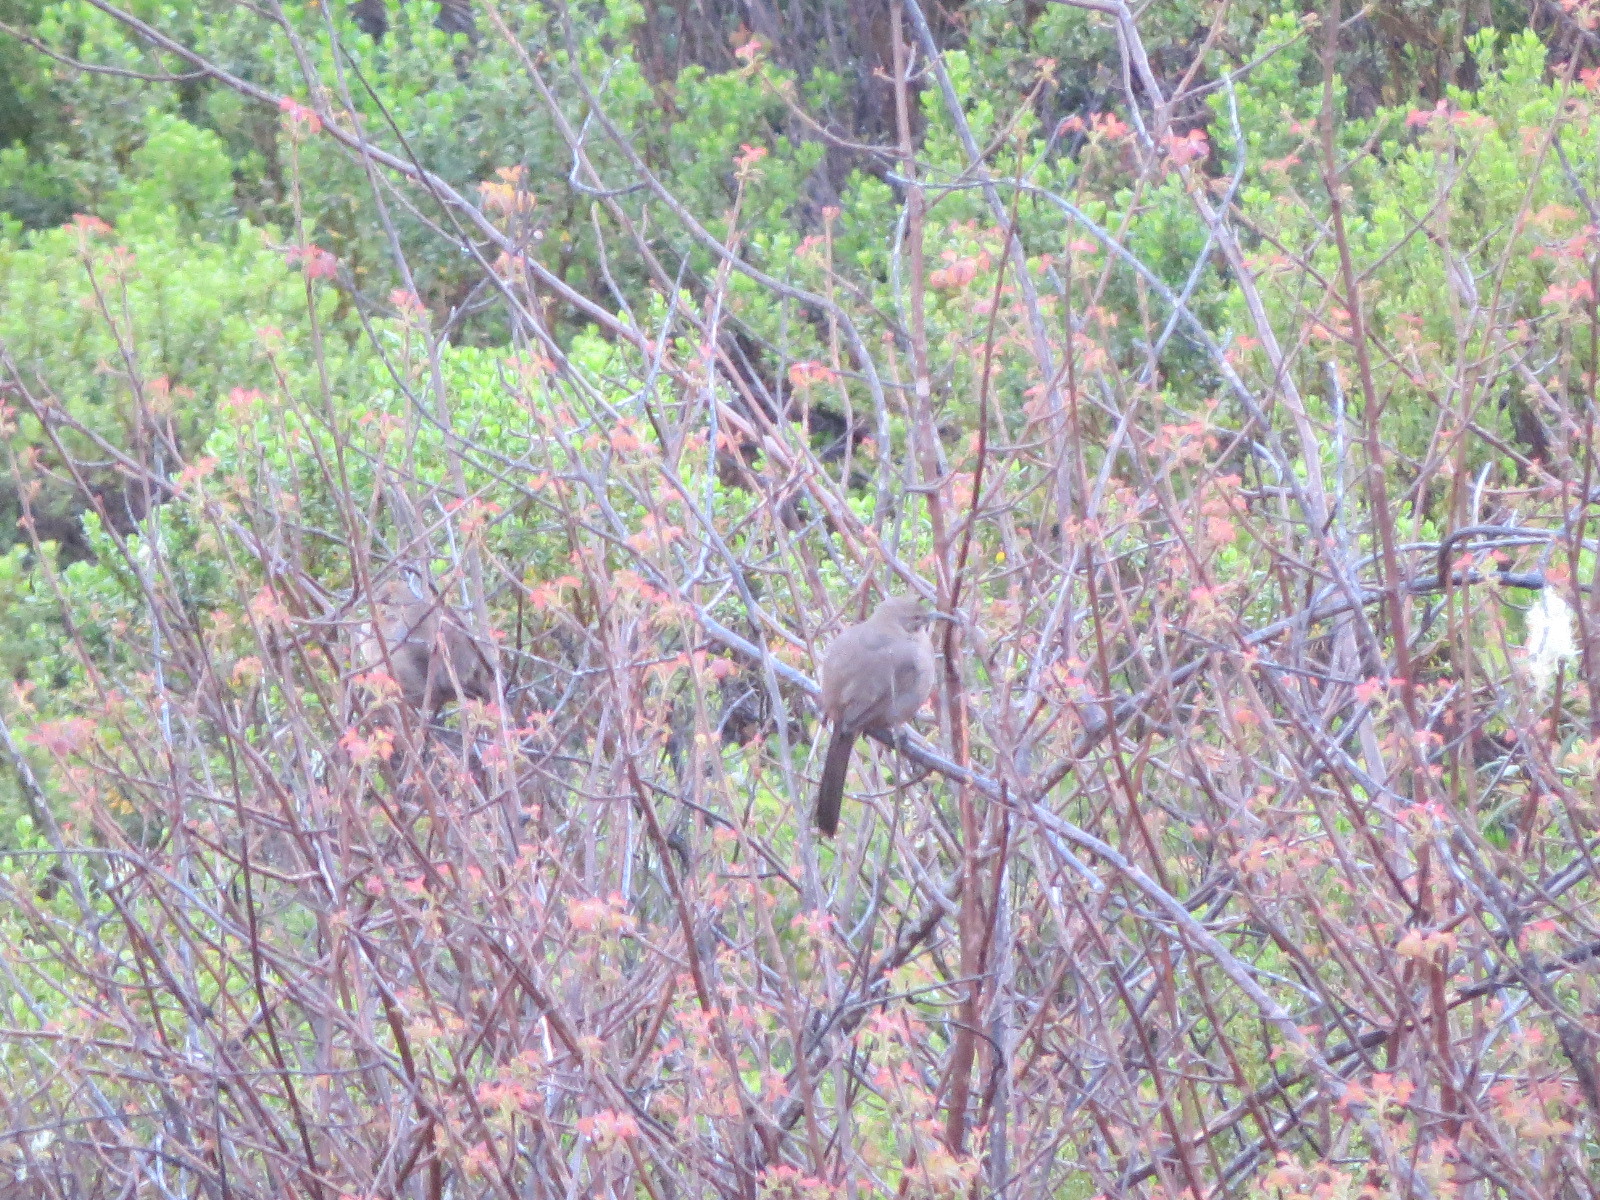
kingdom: Animalia
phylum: Chordata
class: Aves
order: Passeriformes
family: Mimidae
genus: Toxostoma
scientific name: Toxostoma redivivum
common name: California thrasher
